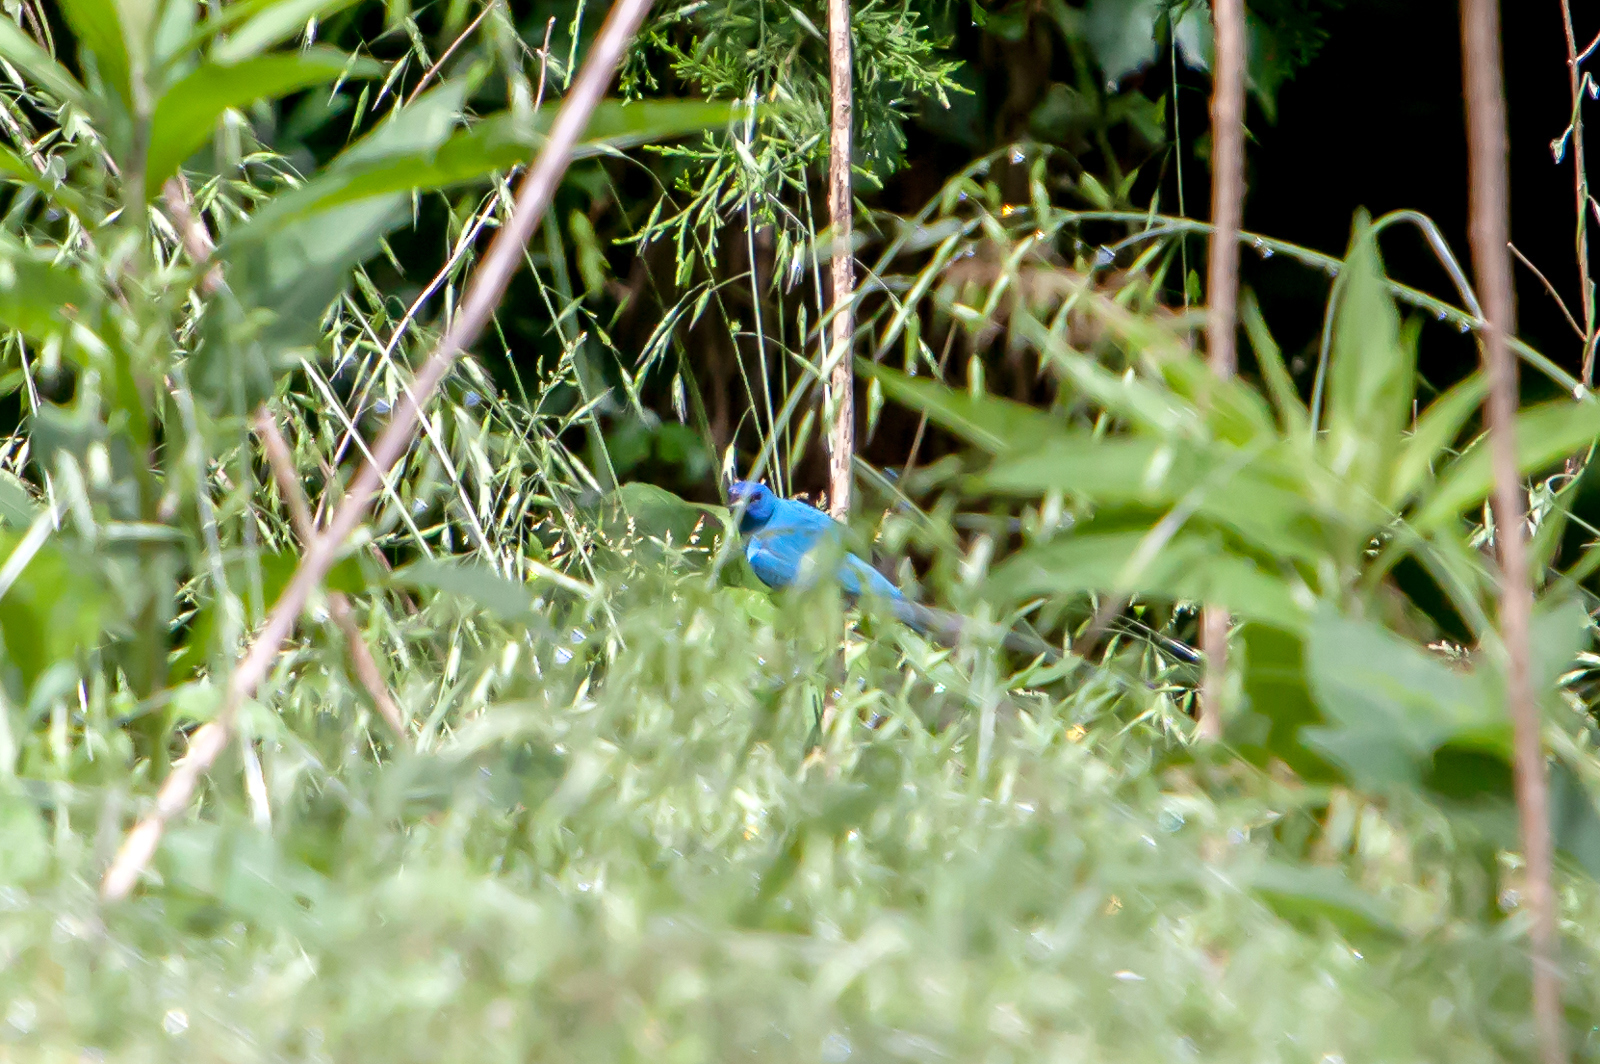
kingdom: Animalia
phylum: Chordata
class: Aves
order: Passeriformes
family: Cardinalidae
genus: Passerina
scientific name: Passerina cyanea
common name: Indigo bunting
